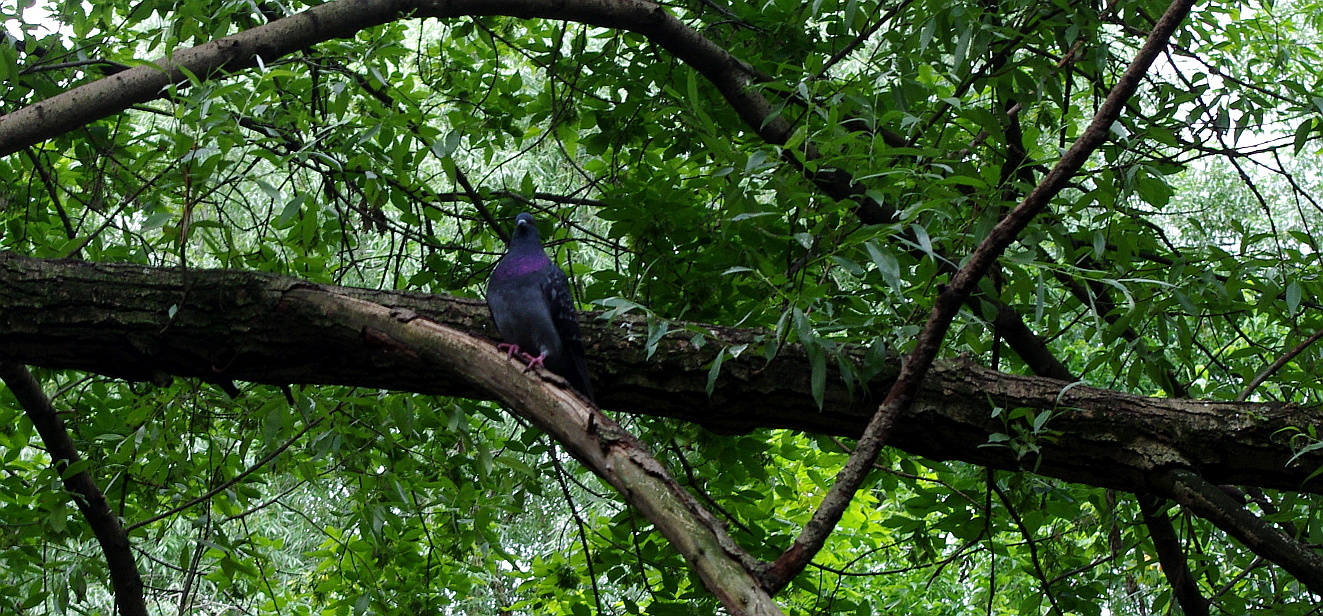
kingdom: Animalia
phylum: Chordata
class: Aves
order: Columbiformes
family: Columbidae
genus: Columba
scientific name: Columba livia
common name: Rock pigeon
